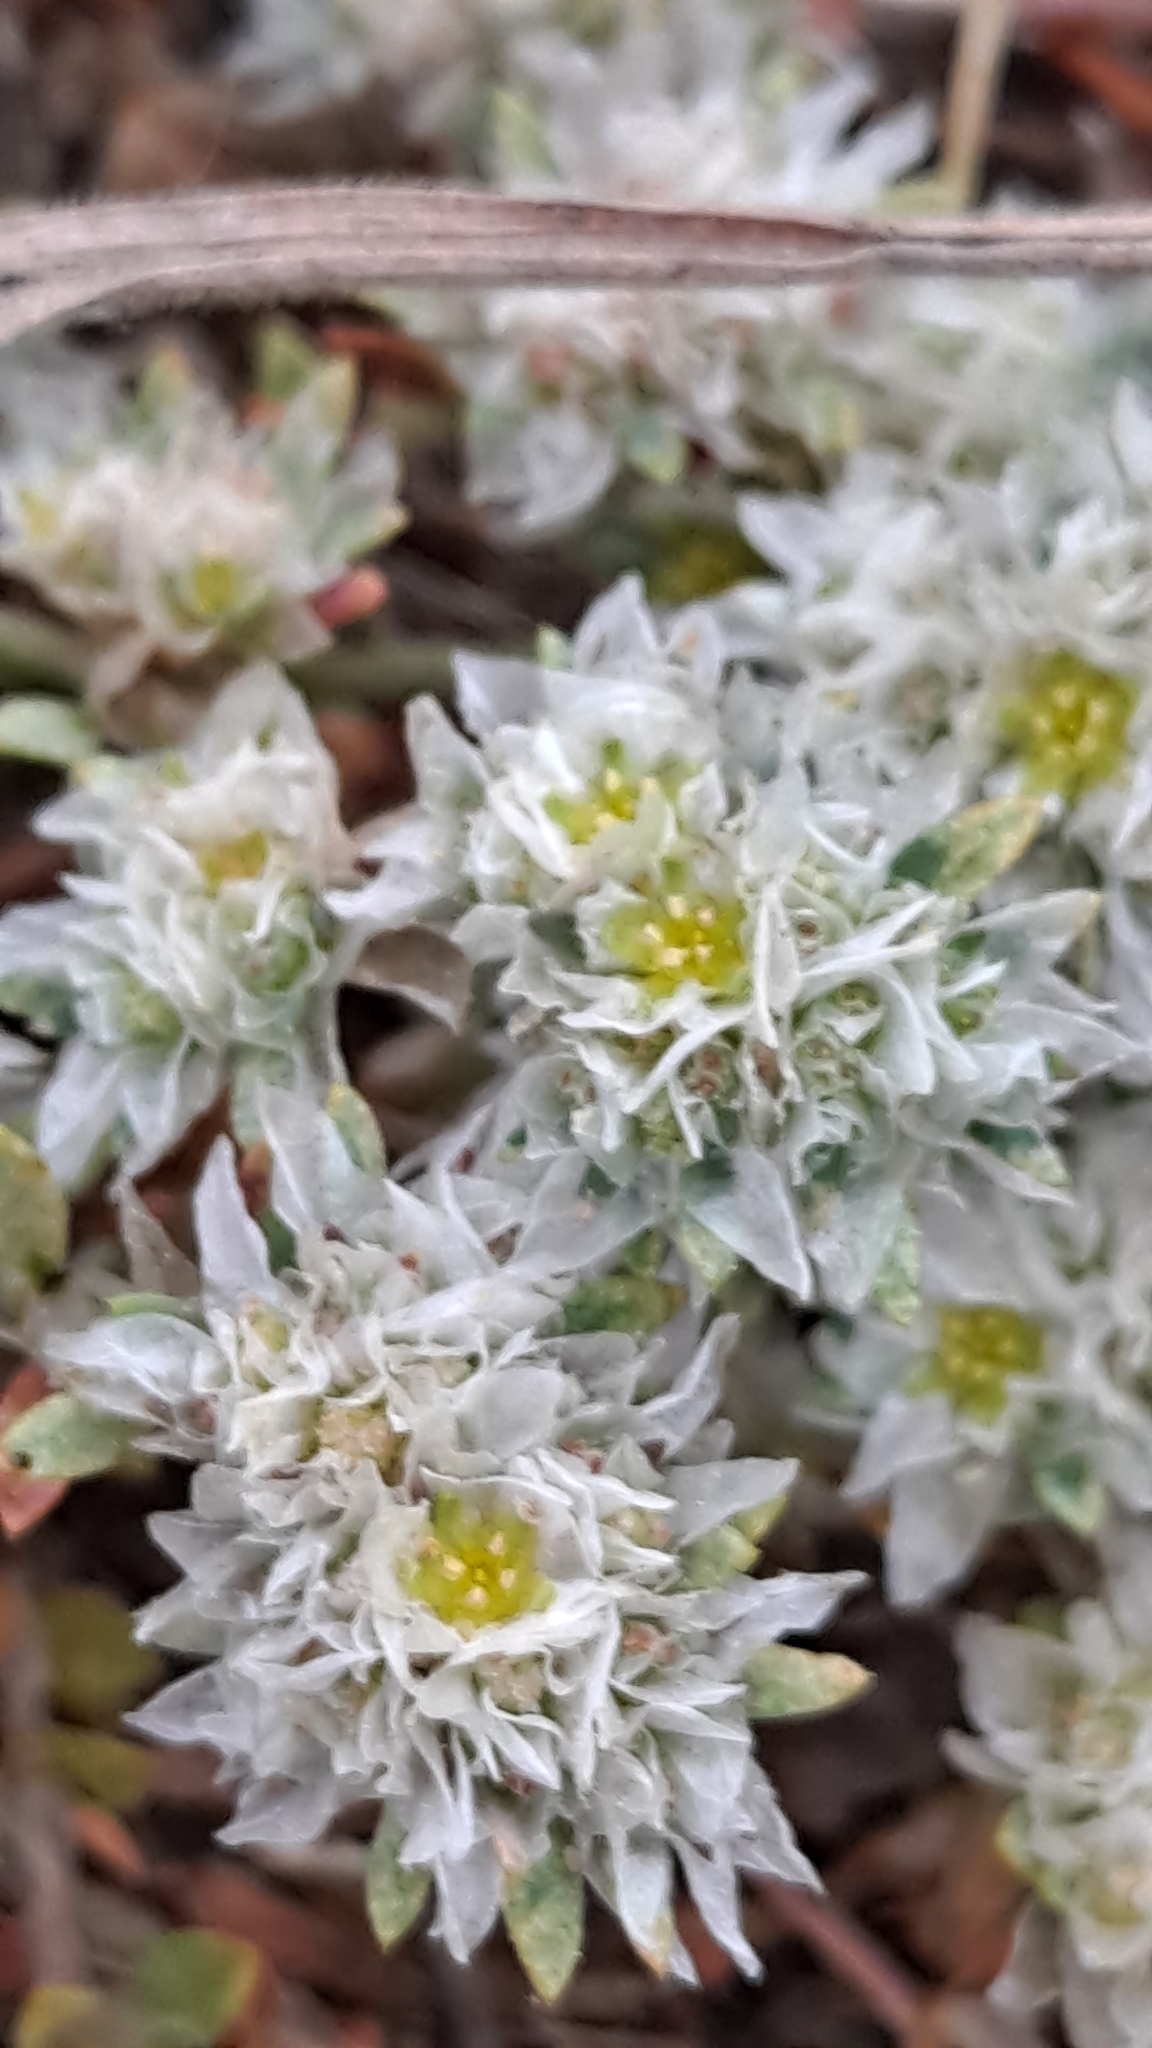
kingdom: Plantae
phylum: Tracheophyta
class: Magnoliopsida
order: Caryophyllales
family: Caryophyllaceae
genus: Paronychia
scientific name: Paronychia argentea
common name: Silver nailroot
